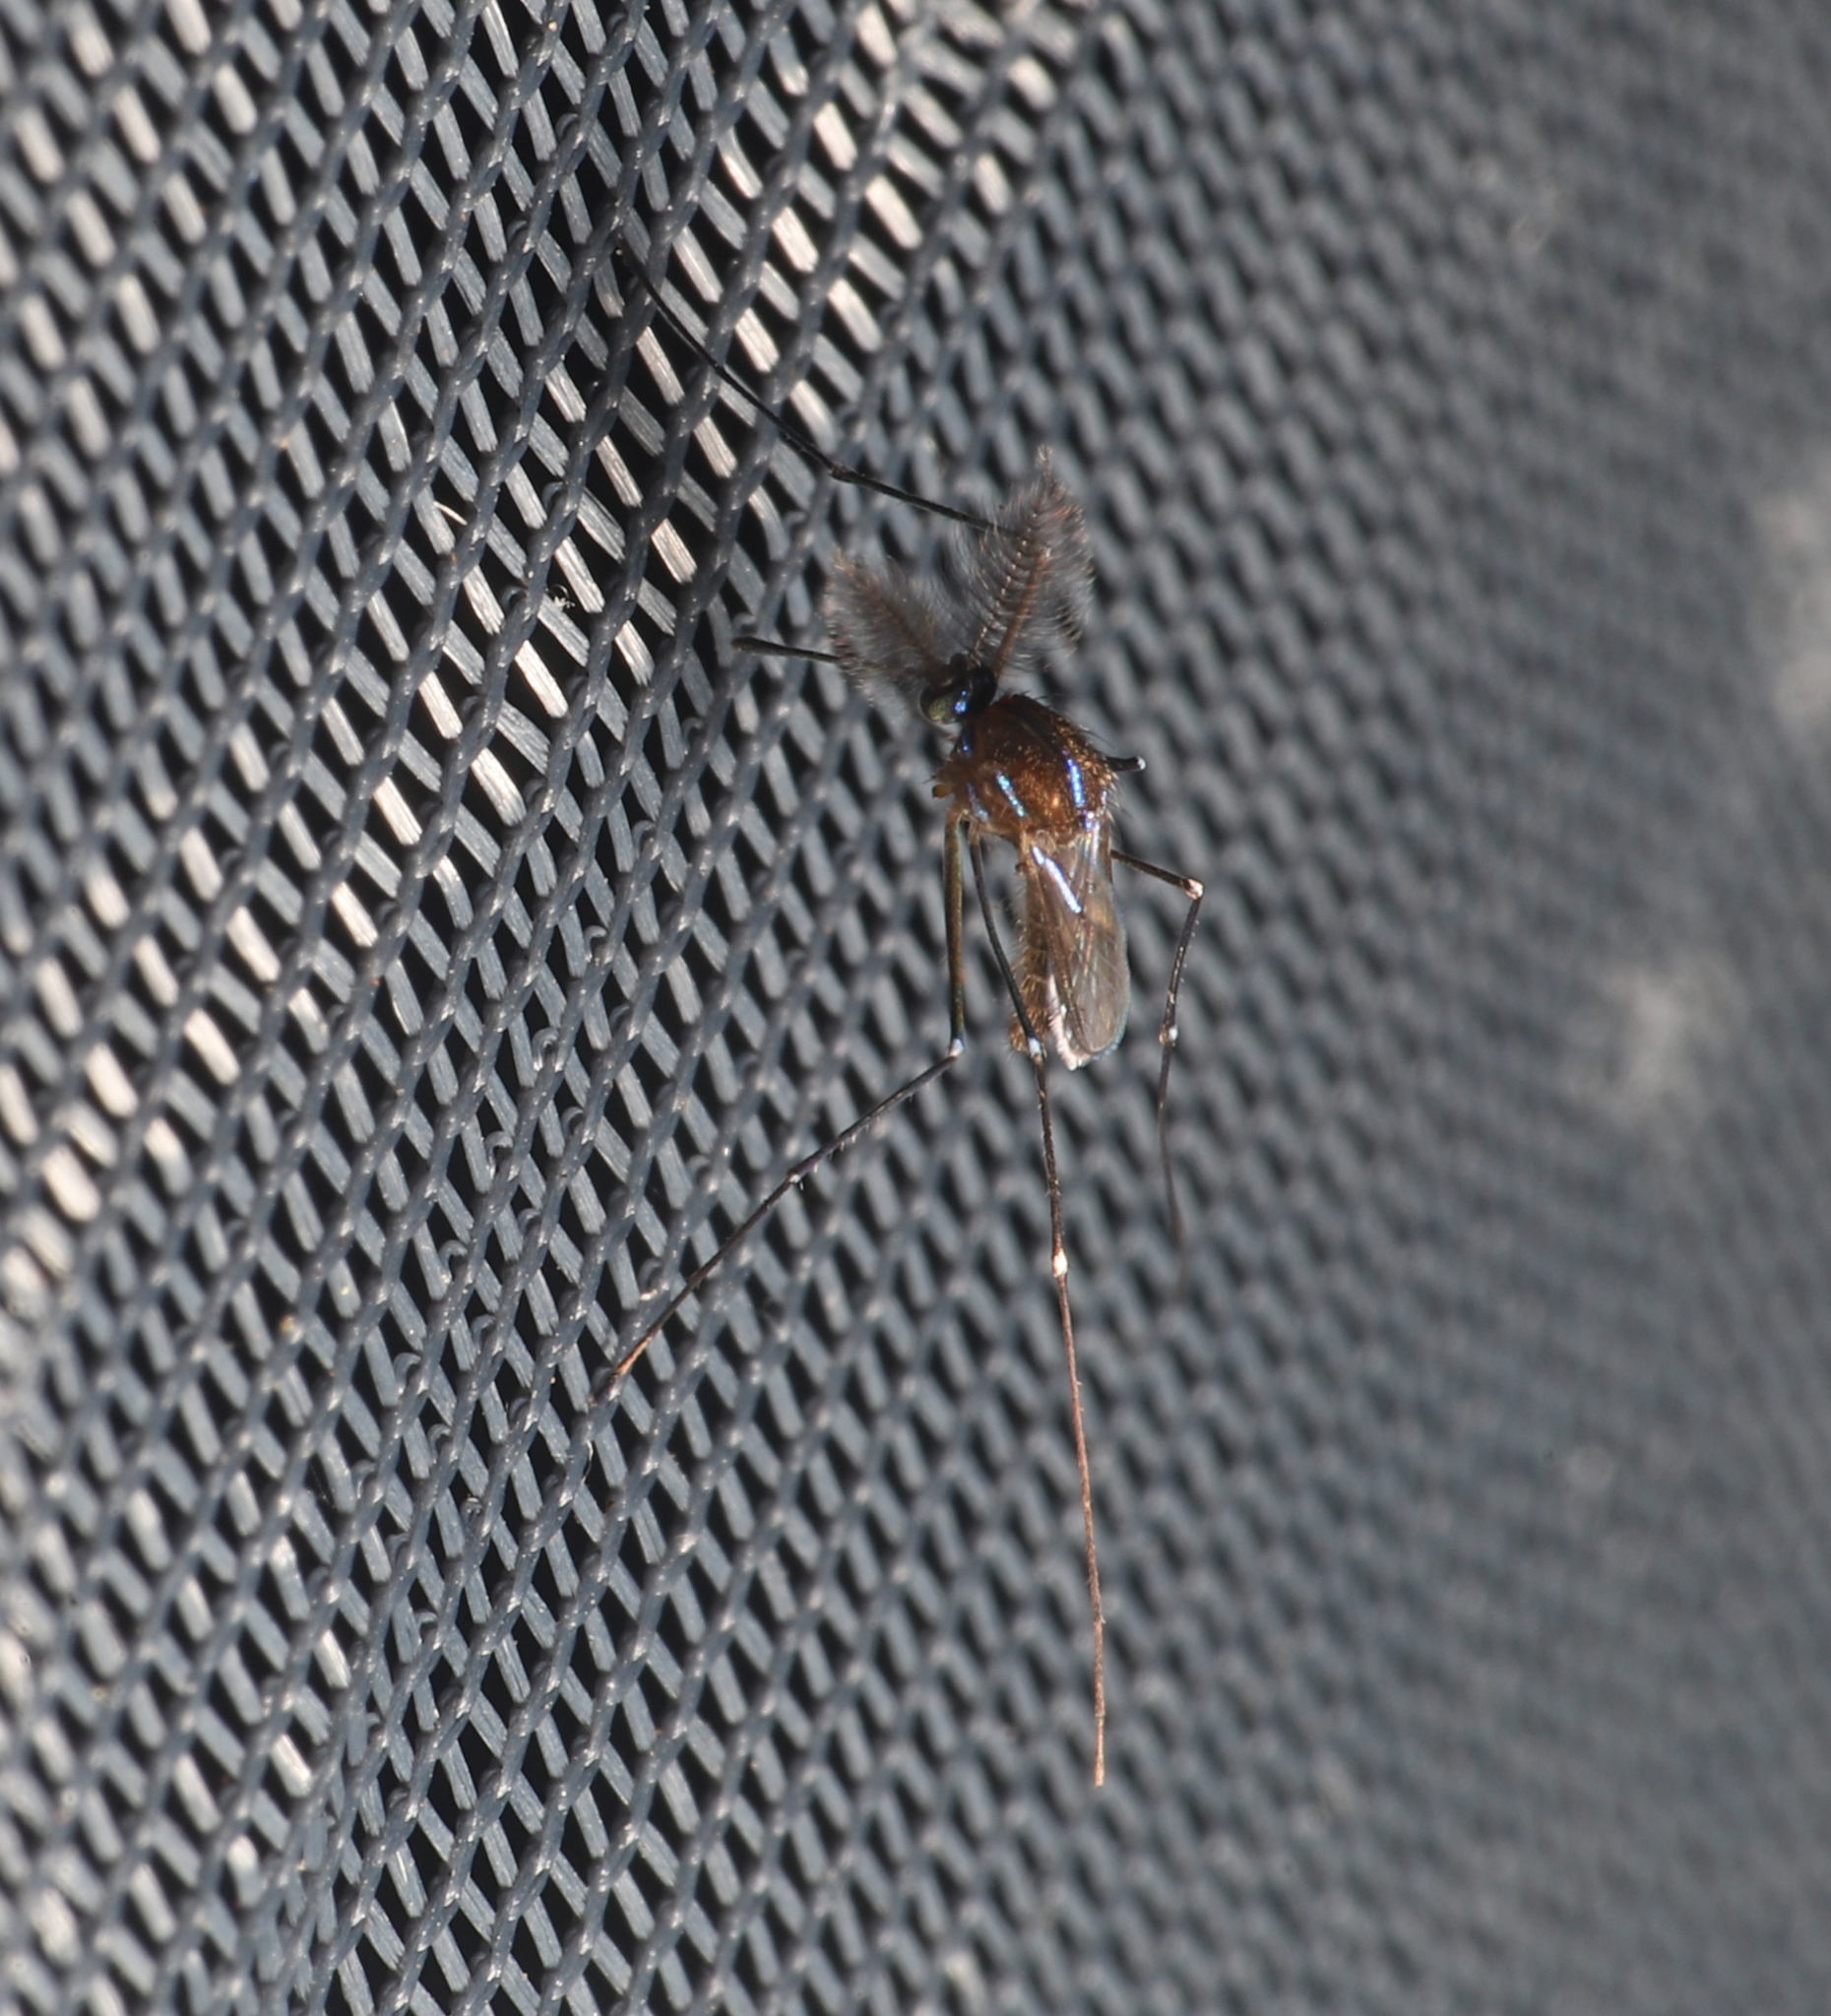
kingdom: Animalia
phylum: Arthropoda
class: Insecta
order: Diptera
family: Culicidae
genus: Uranotaenia
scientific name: Uranotaenia sapphirina
